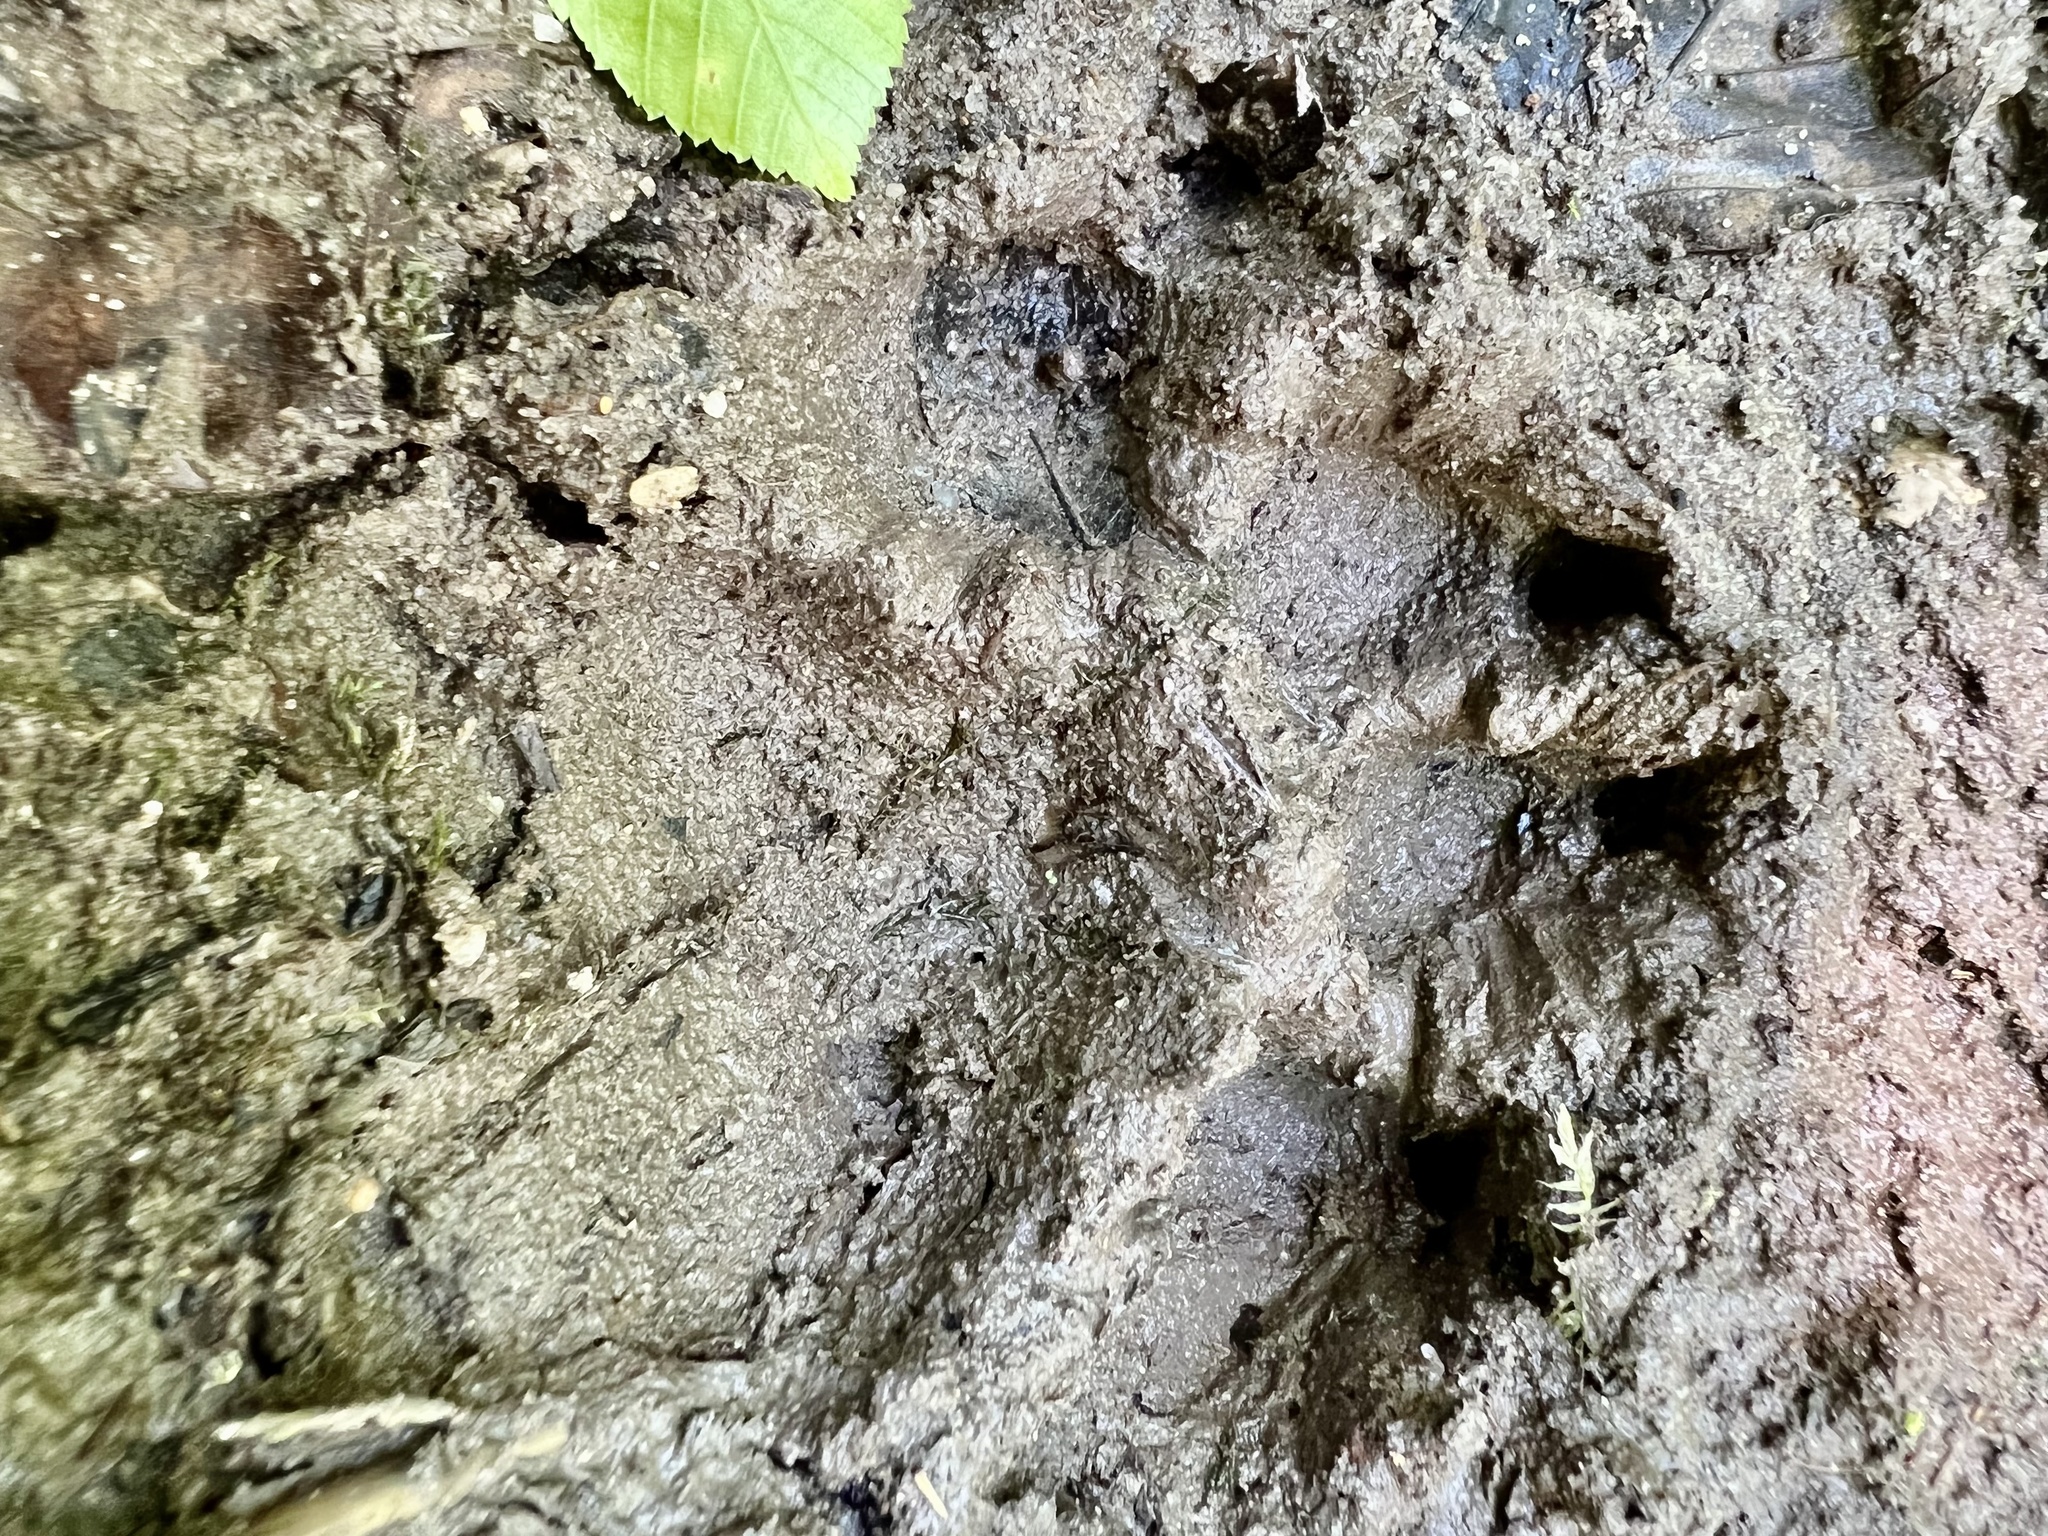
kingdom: Animalia
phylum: Chordata
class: Mammalia
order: Carnivora
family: Canidae
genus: Canis
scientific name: Canis lupus
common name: Gray wolf
